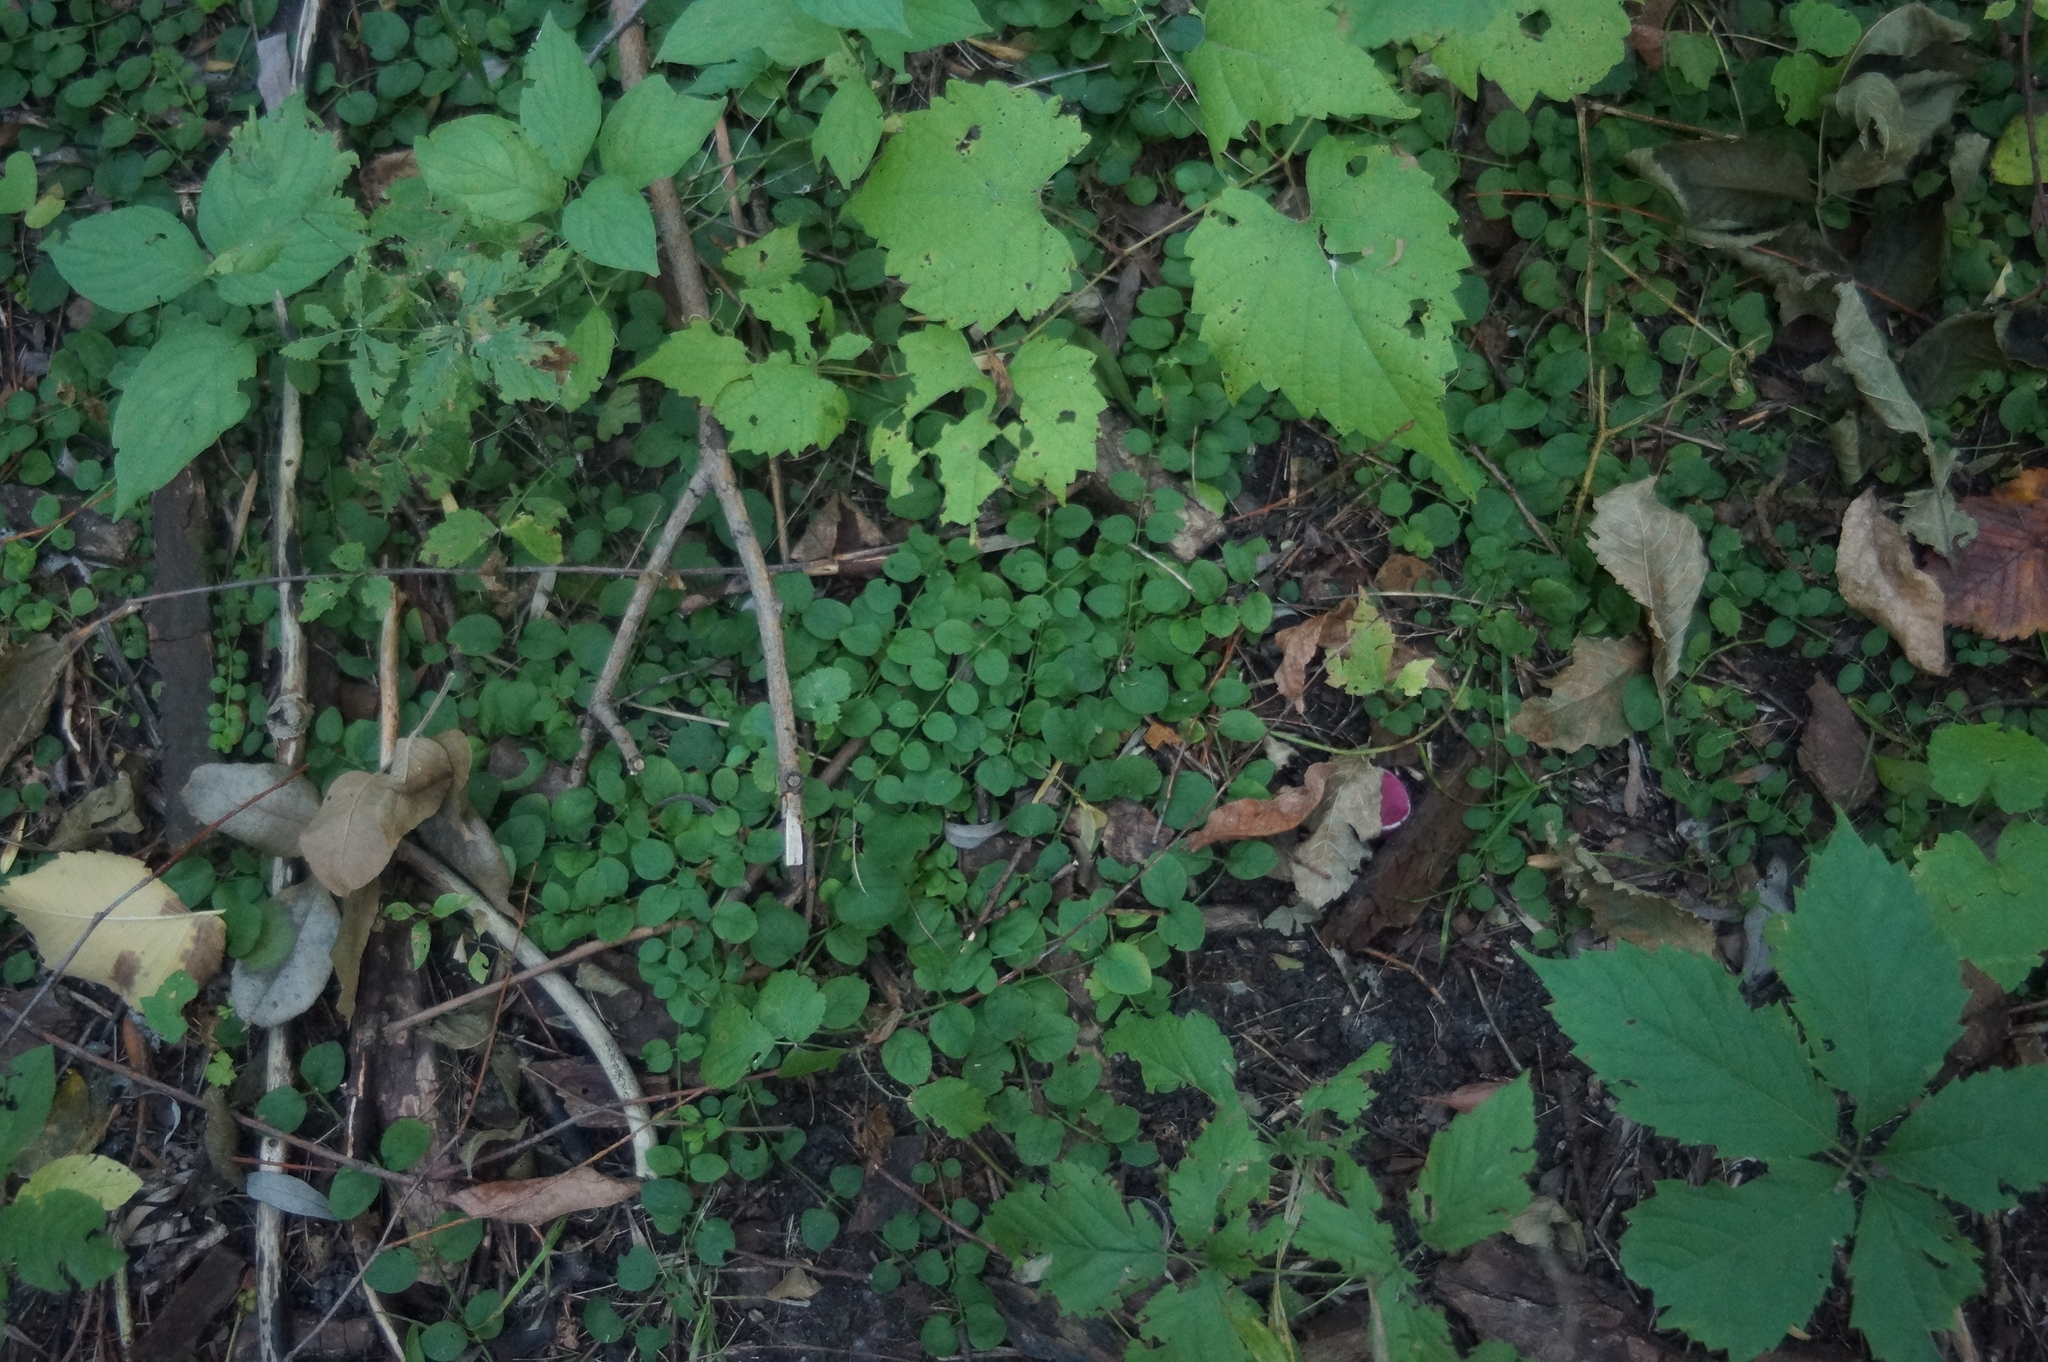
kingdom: Plantae
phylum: Tracheophyta
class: Magnoliopsida
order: Ericales
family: Primulaceae
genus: Lysimachia
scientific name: Lysimachia nummularia
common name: Moneywort
